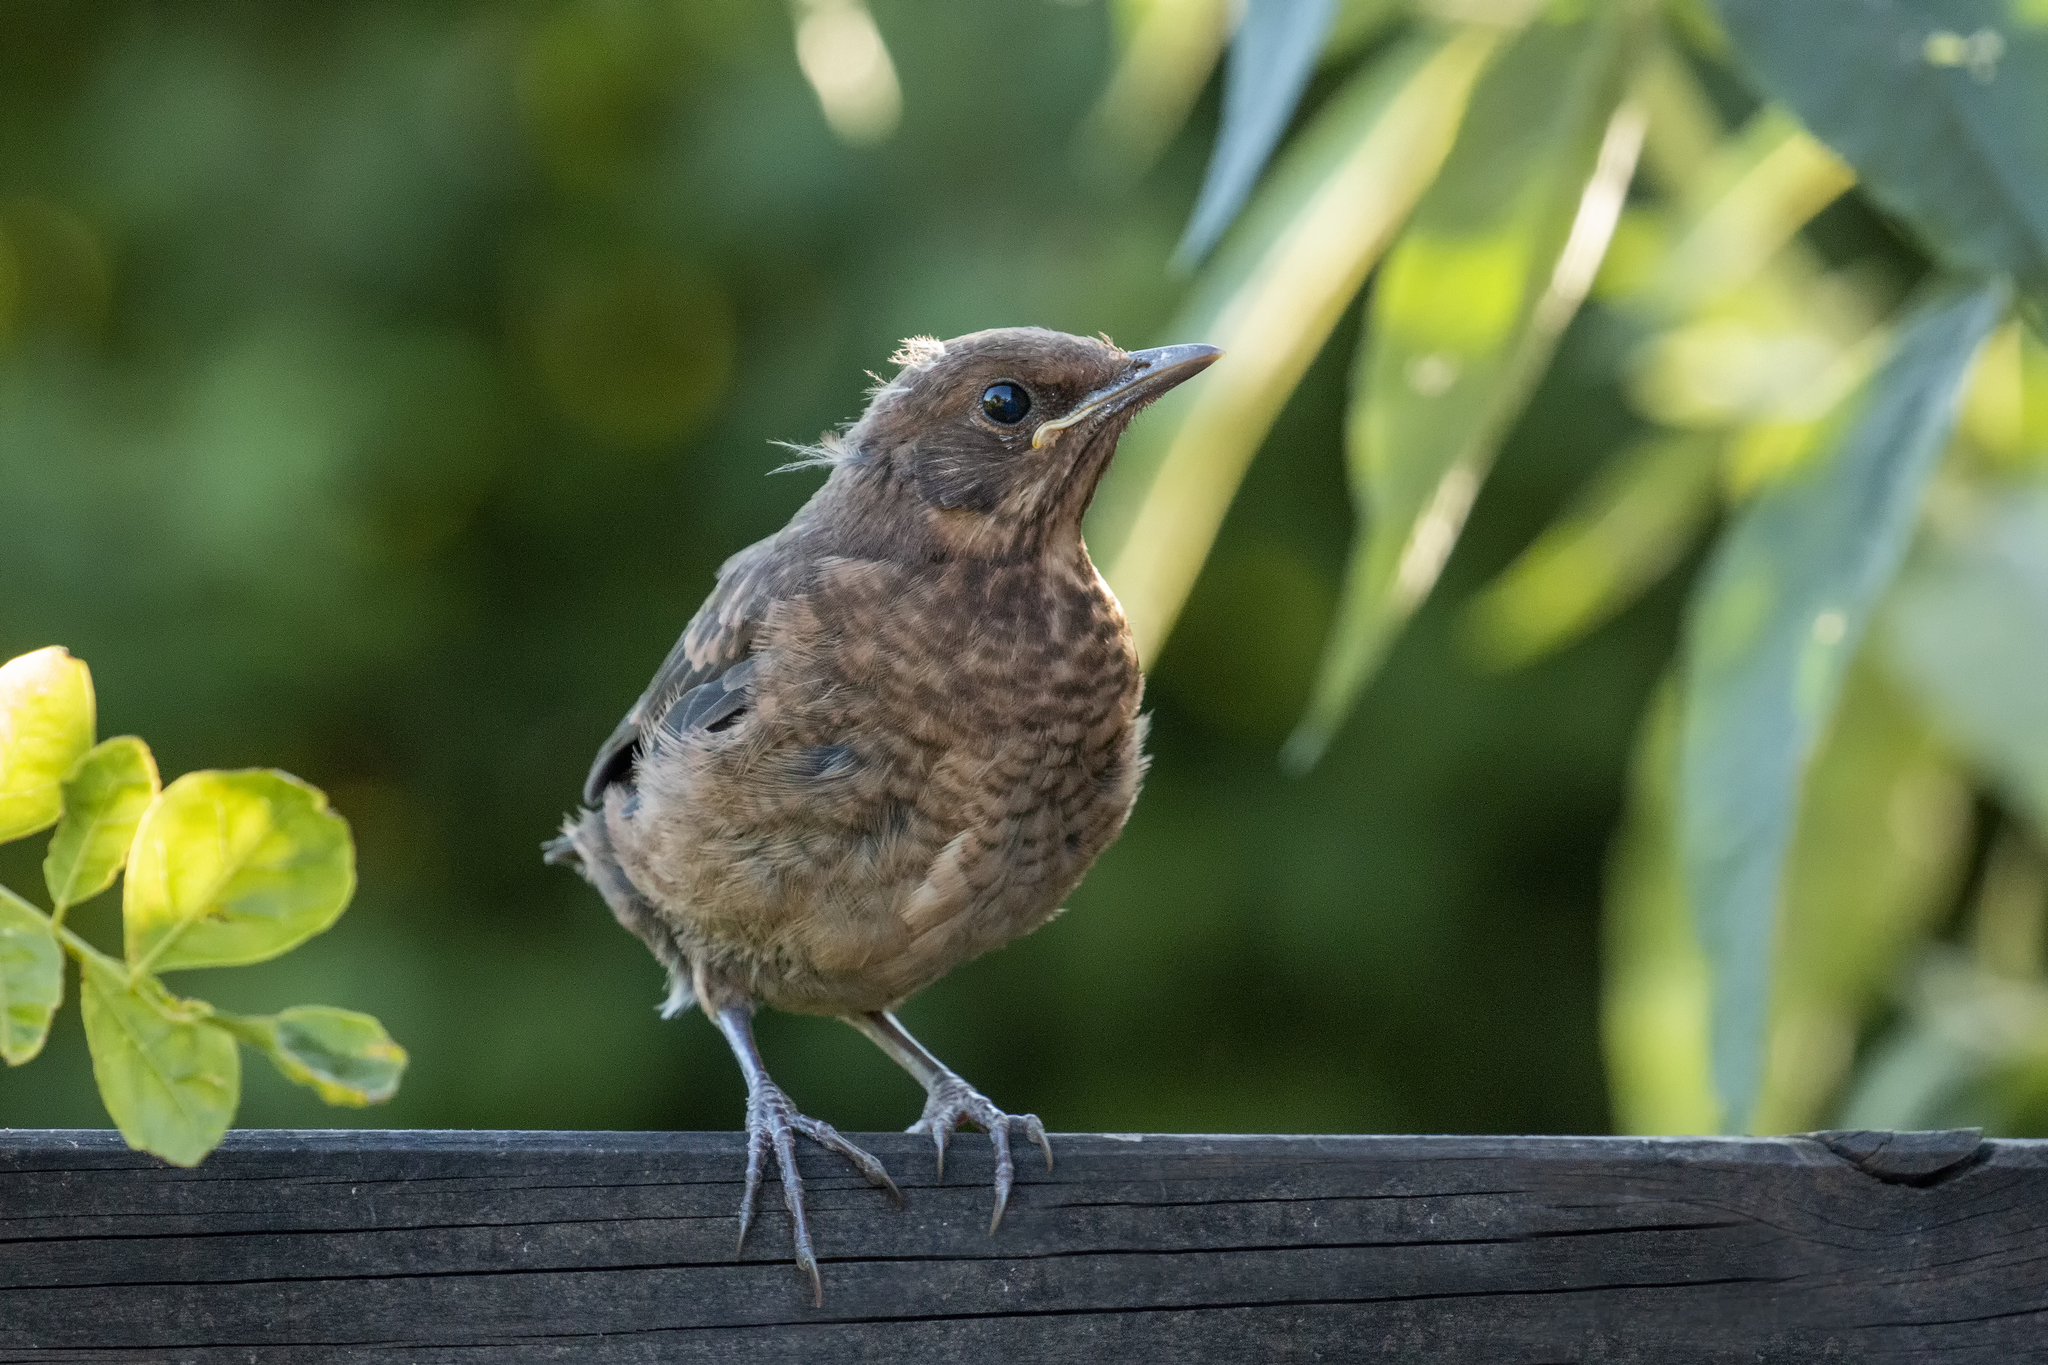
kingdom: Animalia
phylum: Chordata
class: Aves
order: Passeriformes
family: Turdidae
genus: Turdus
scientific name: Turdus merula
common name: Common blackbird
